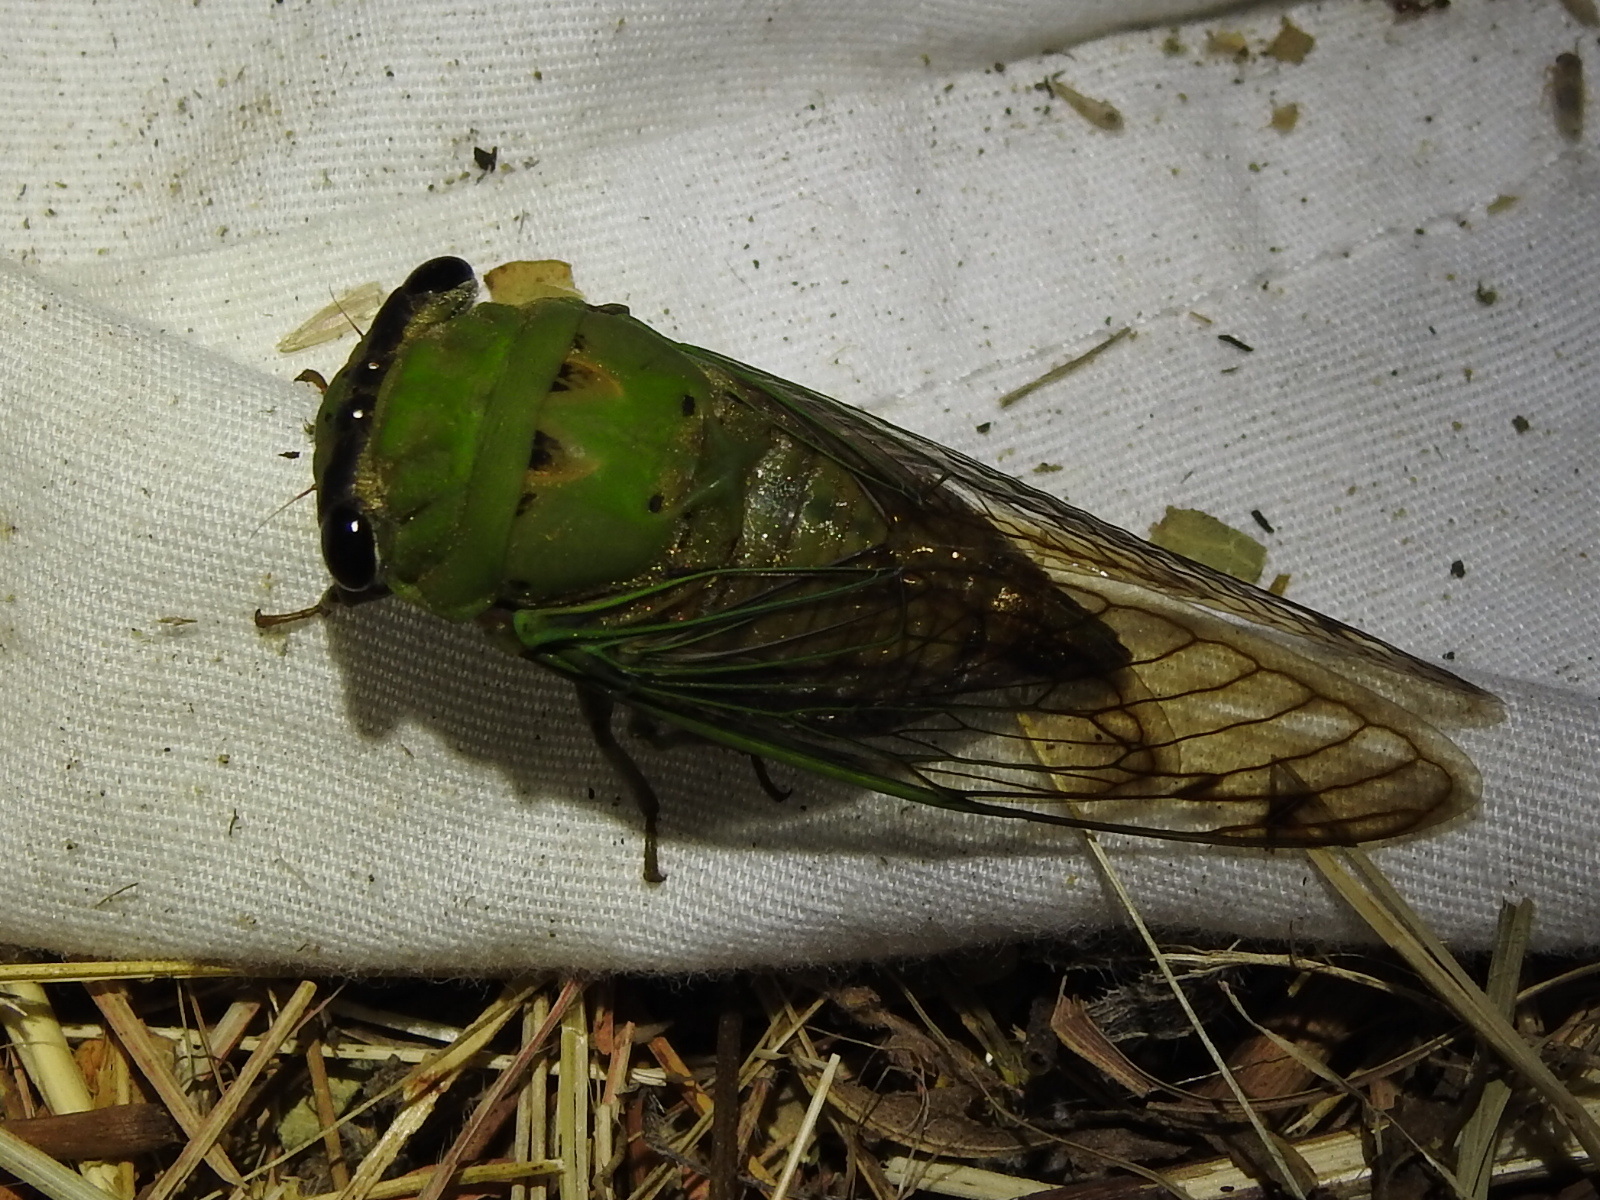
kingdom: Animalia
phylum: Arthropoda
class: Insecta
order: Hemiptera
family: Cicadidae
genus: Neotibicen
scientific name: Neotibicen superbus
